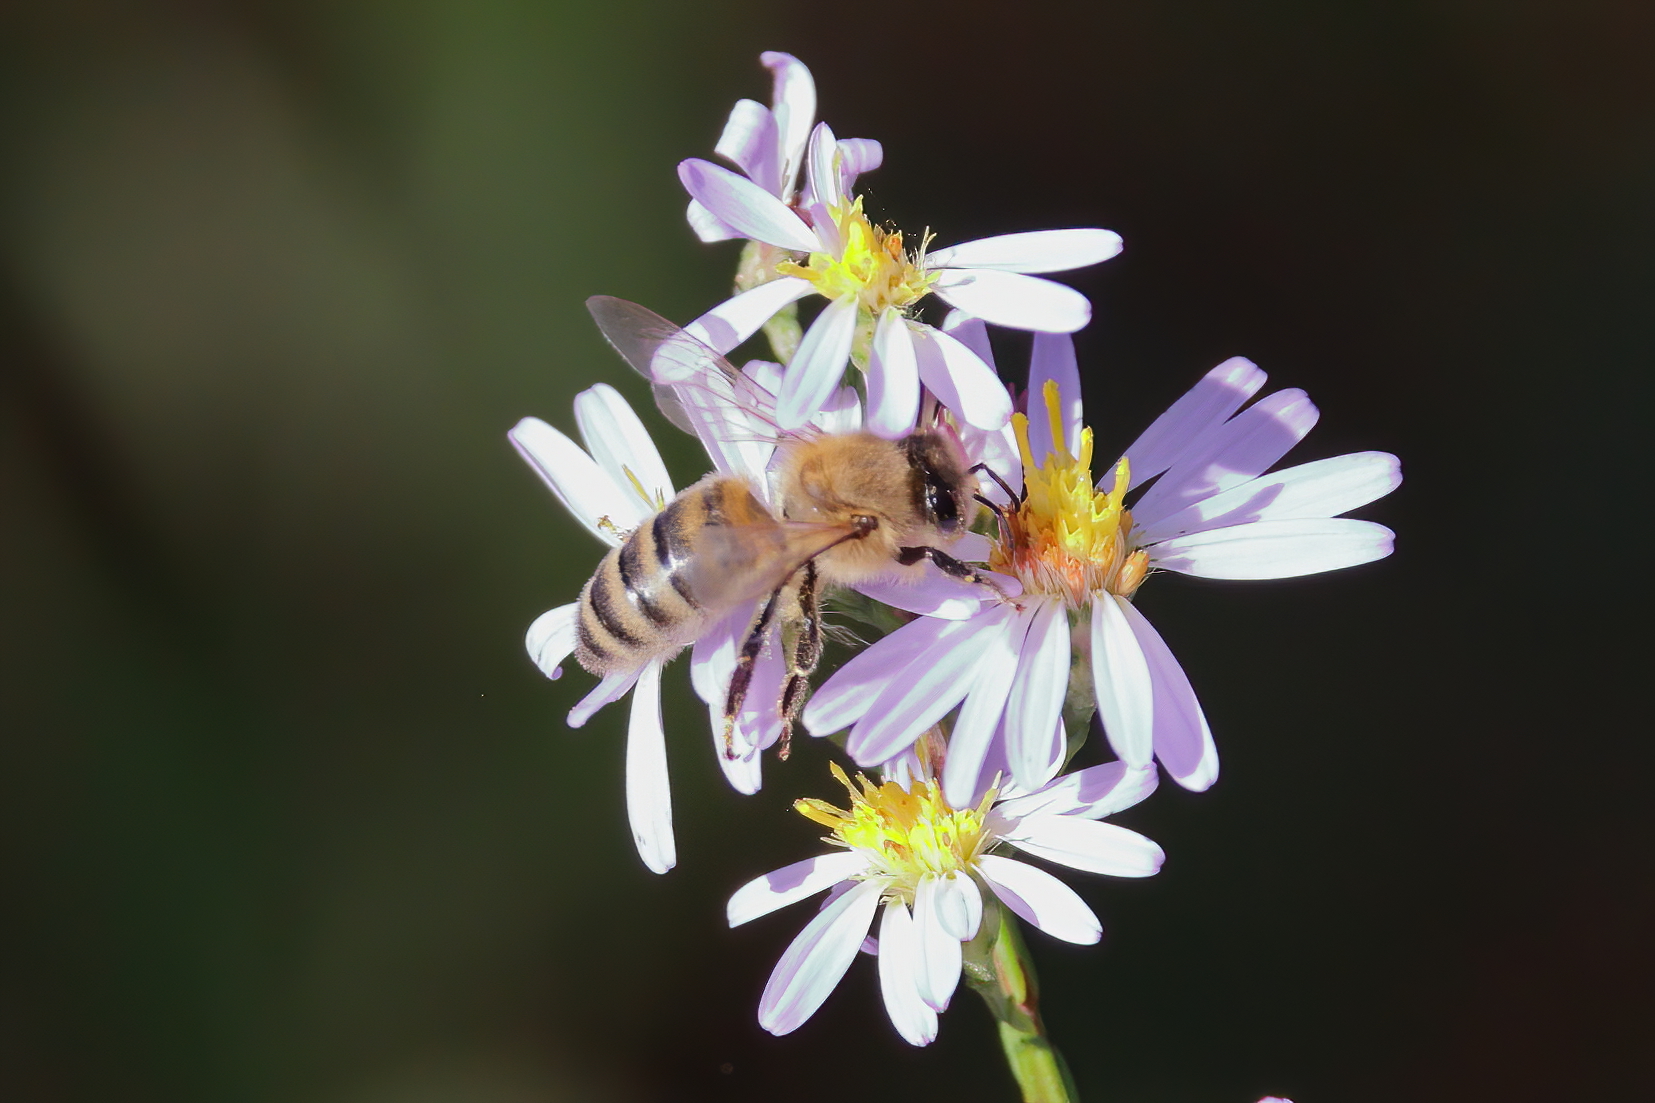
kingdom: Animalia
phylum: Arthropoda
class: Insecta
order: Hymenoptera
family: Apidae
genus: Apis
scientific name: Apis mellifera
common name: Honey bee
